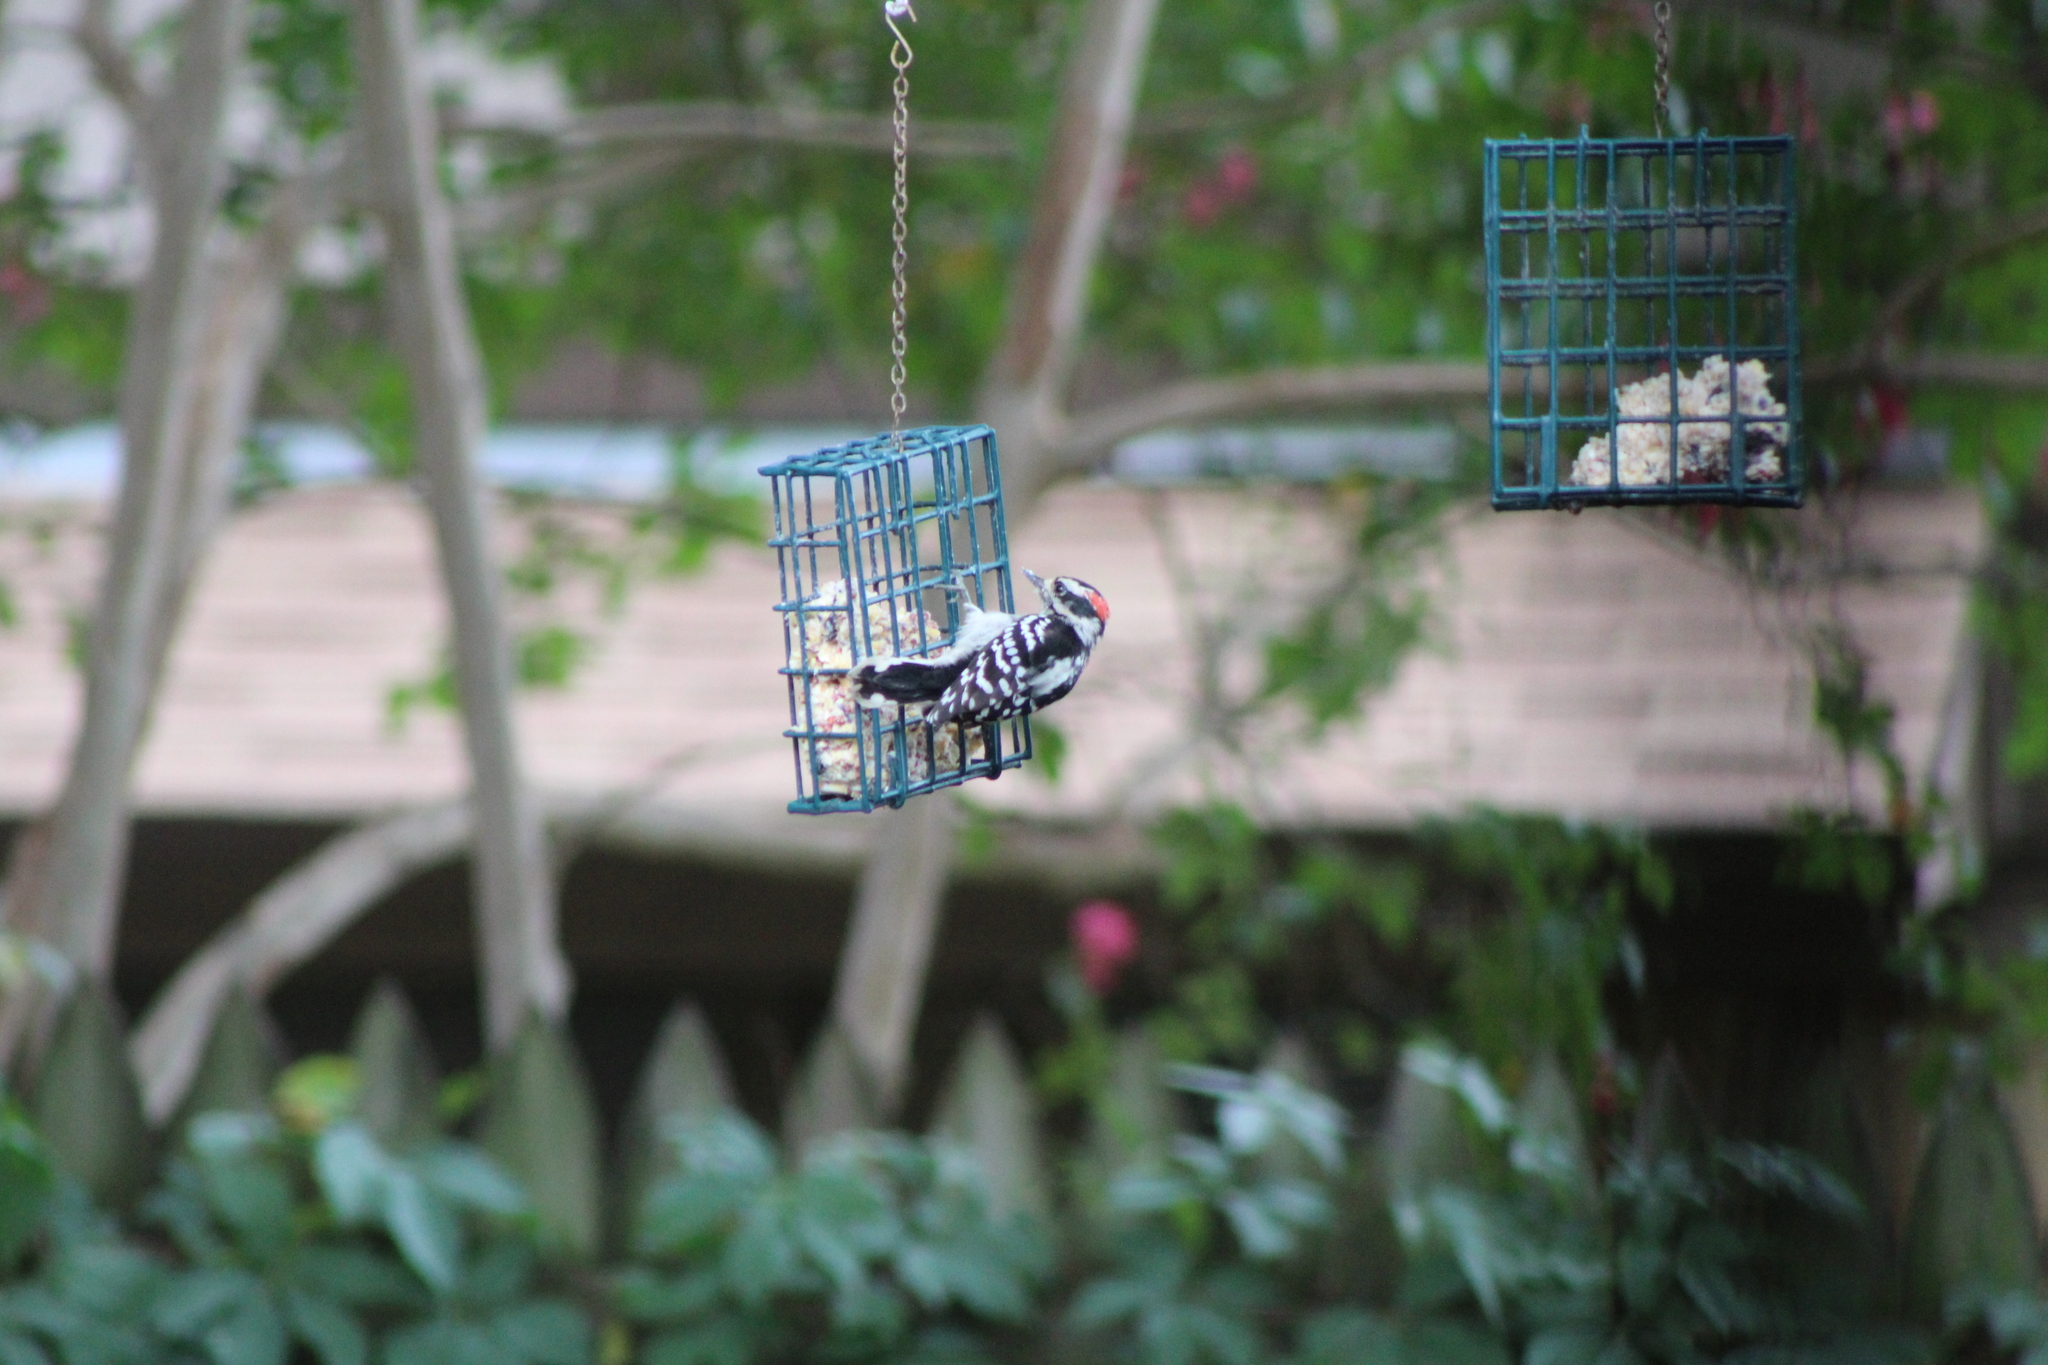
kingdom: Animalia
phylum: Chordata
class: Aves
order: Piciformes
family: Picidae
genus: Dryobates
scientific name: Dryobates pubescens
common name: Downy woodpecker
